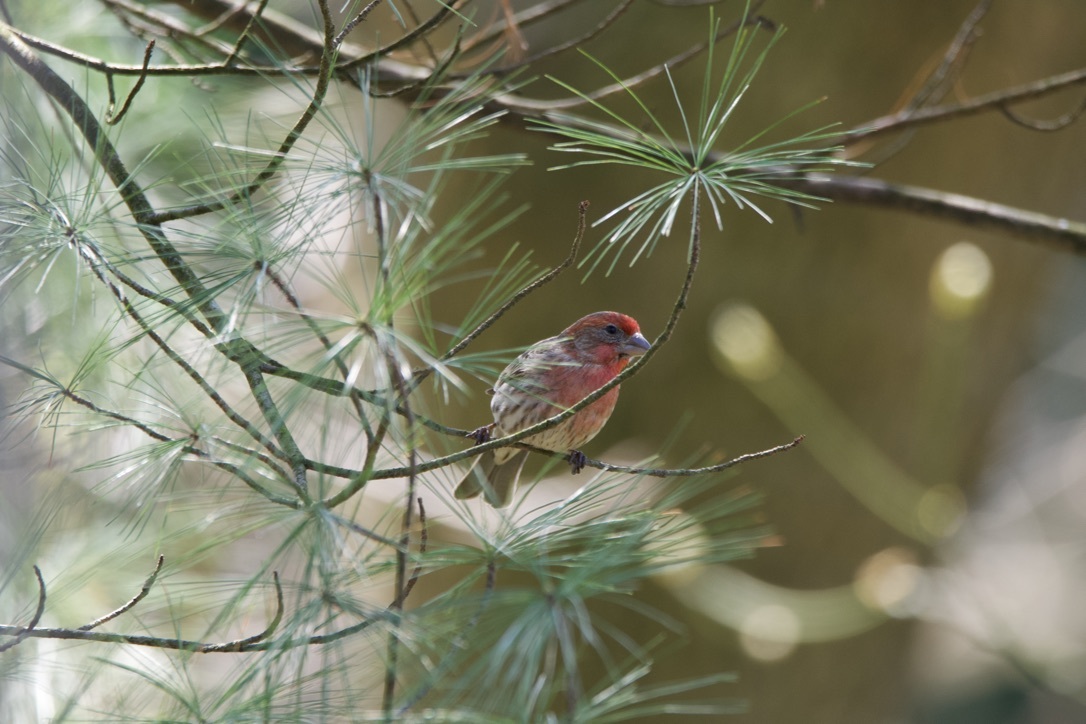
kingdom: Animalia
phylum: Chordata
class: Aves
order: Passeriformes
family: Fringillidae
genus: Haemorhous
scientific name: Haemorhous mexicanus
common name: House finch
